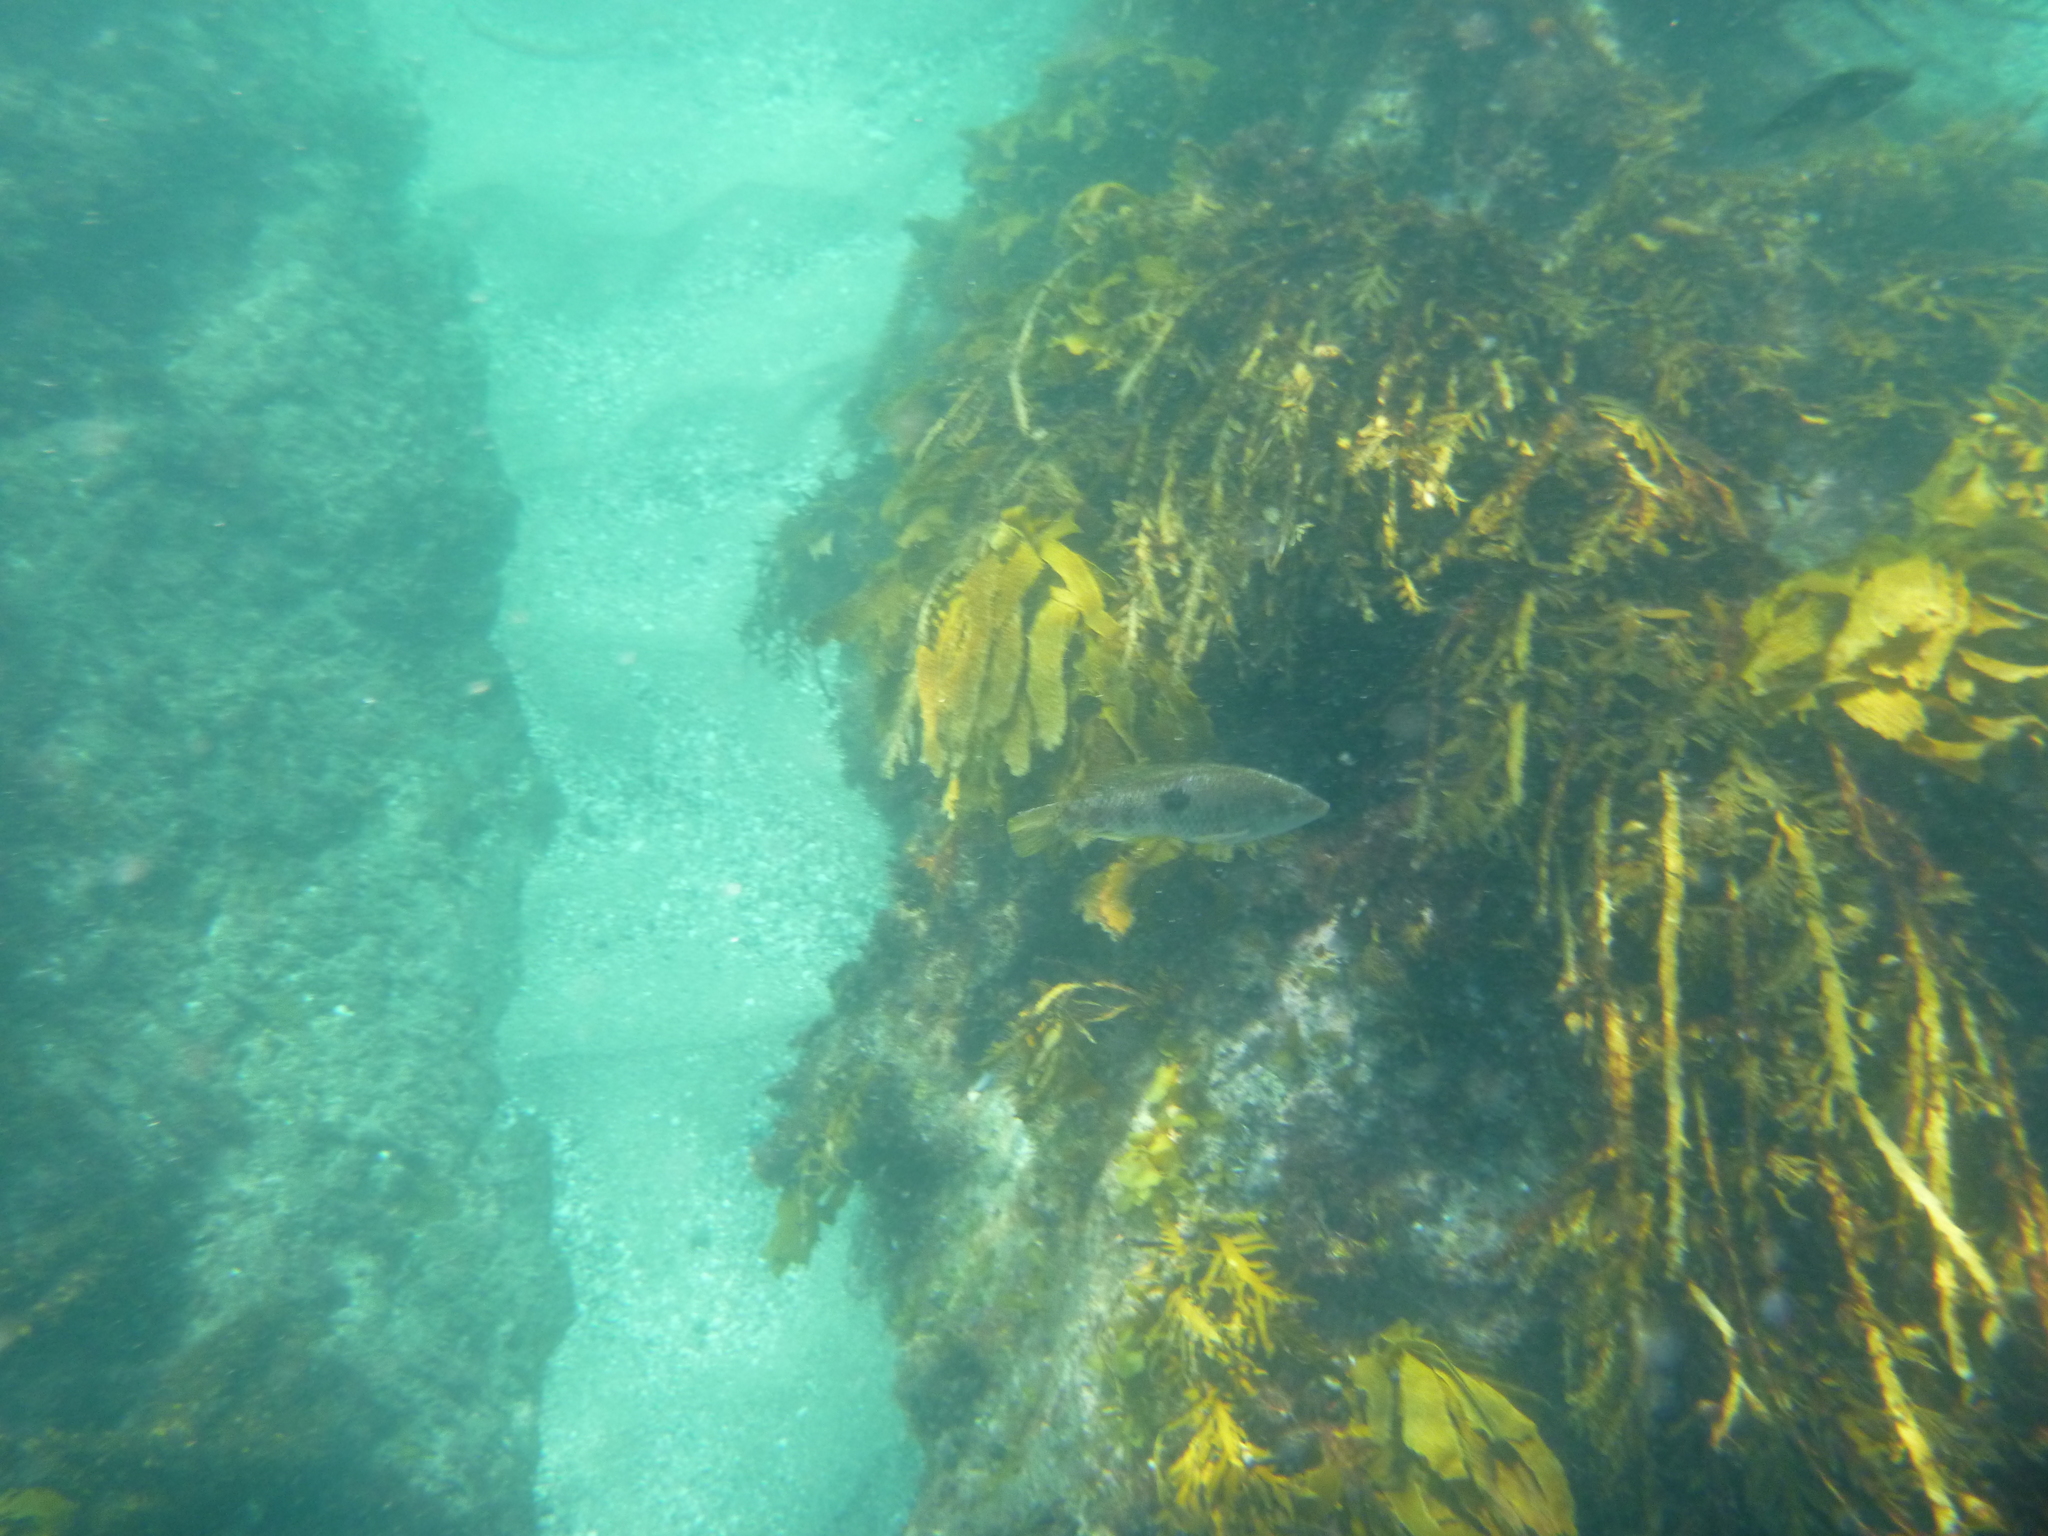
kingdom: Animalia
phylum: Chordata
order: Perciformes
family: Labridae
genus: Notolabrus
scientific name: Notolabrus celidotus
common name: Spotty
